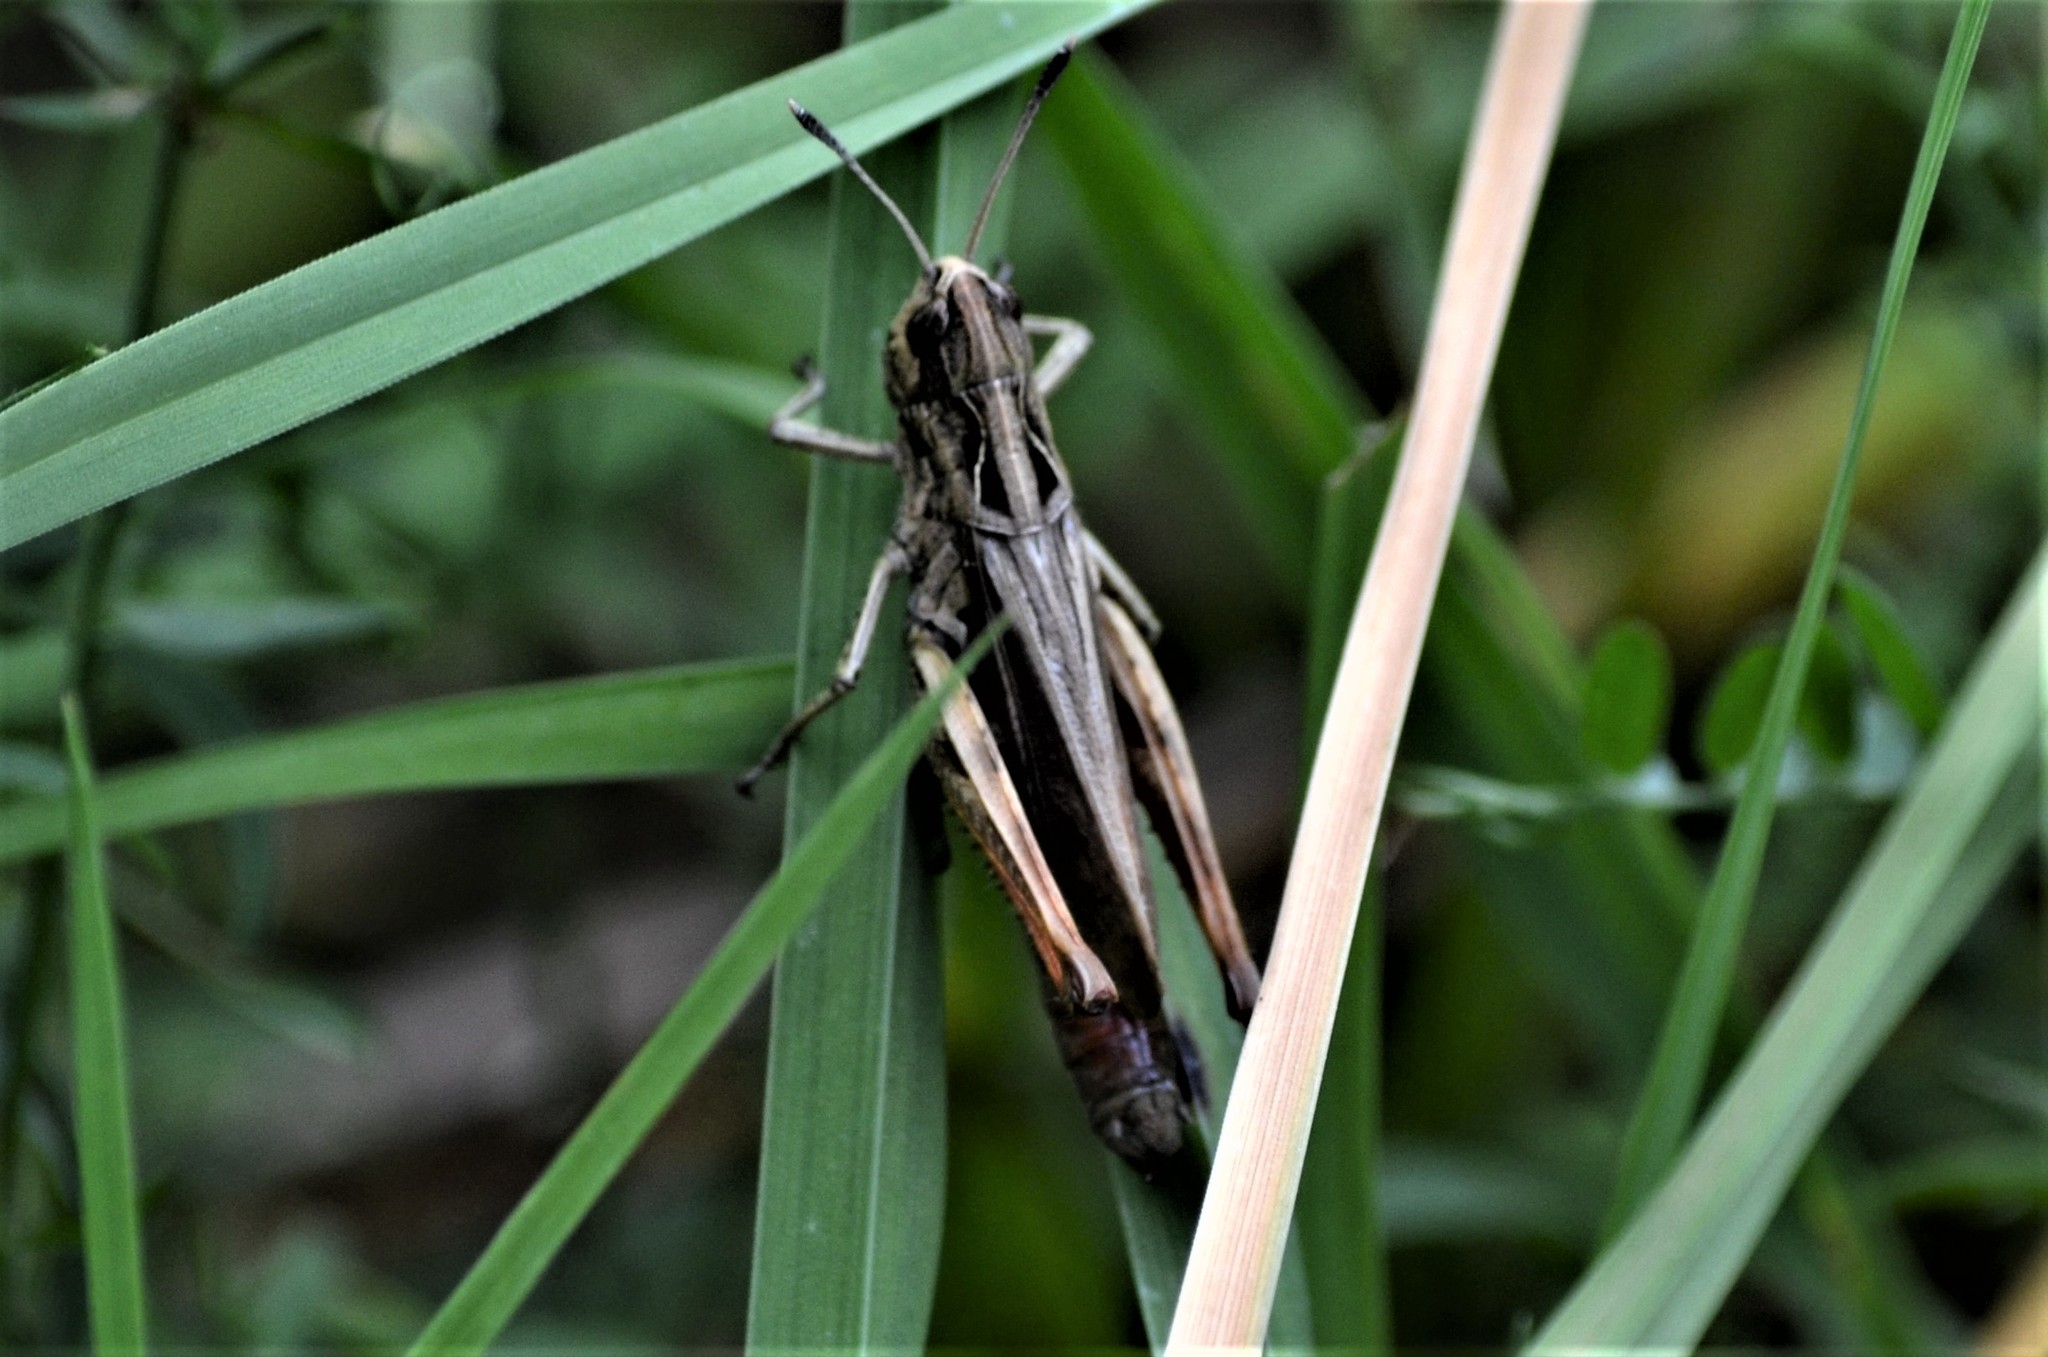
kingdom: Animalia
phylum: Arthropoda
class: Insecta
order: Orthoptera
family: Acrididae
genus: Gomphocerippus
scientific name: Gomphocerippus rufus
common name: Rufous grasshopper
